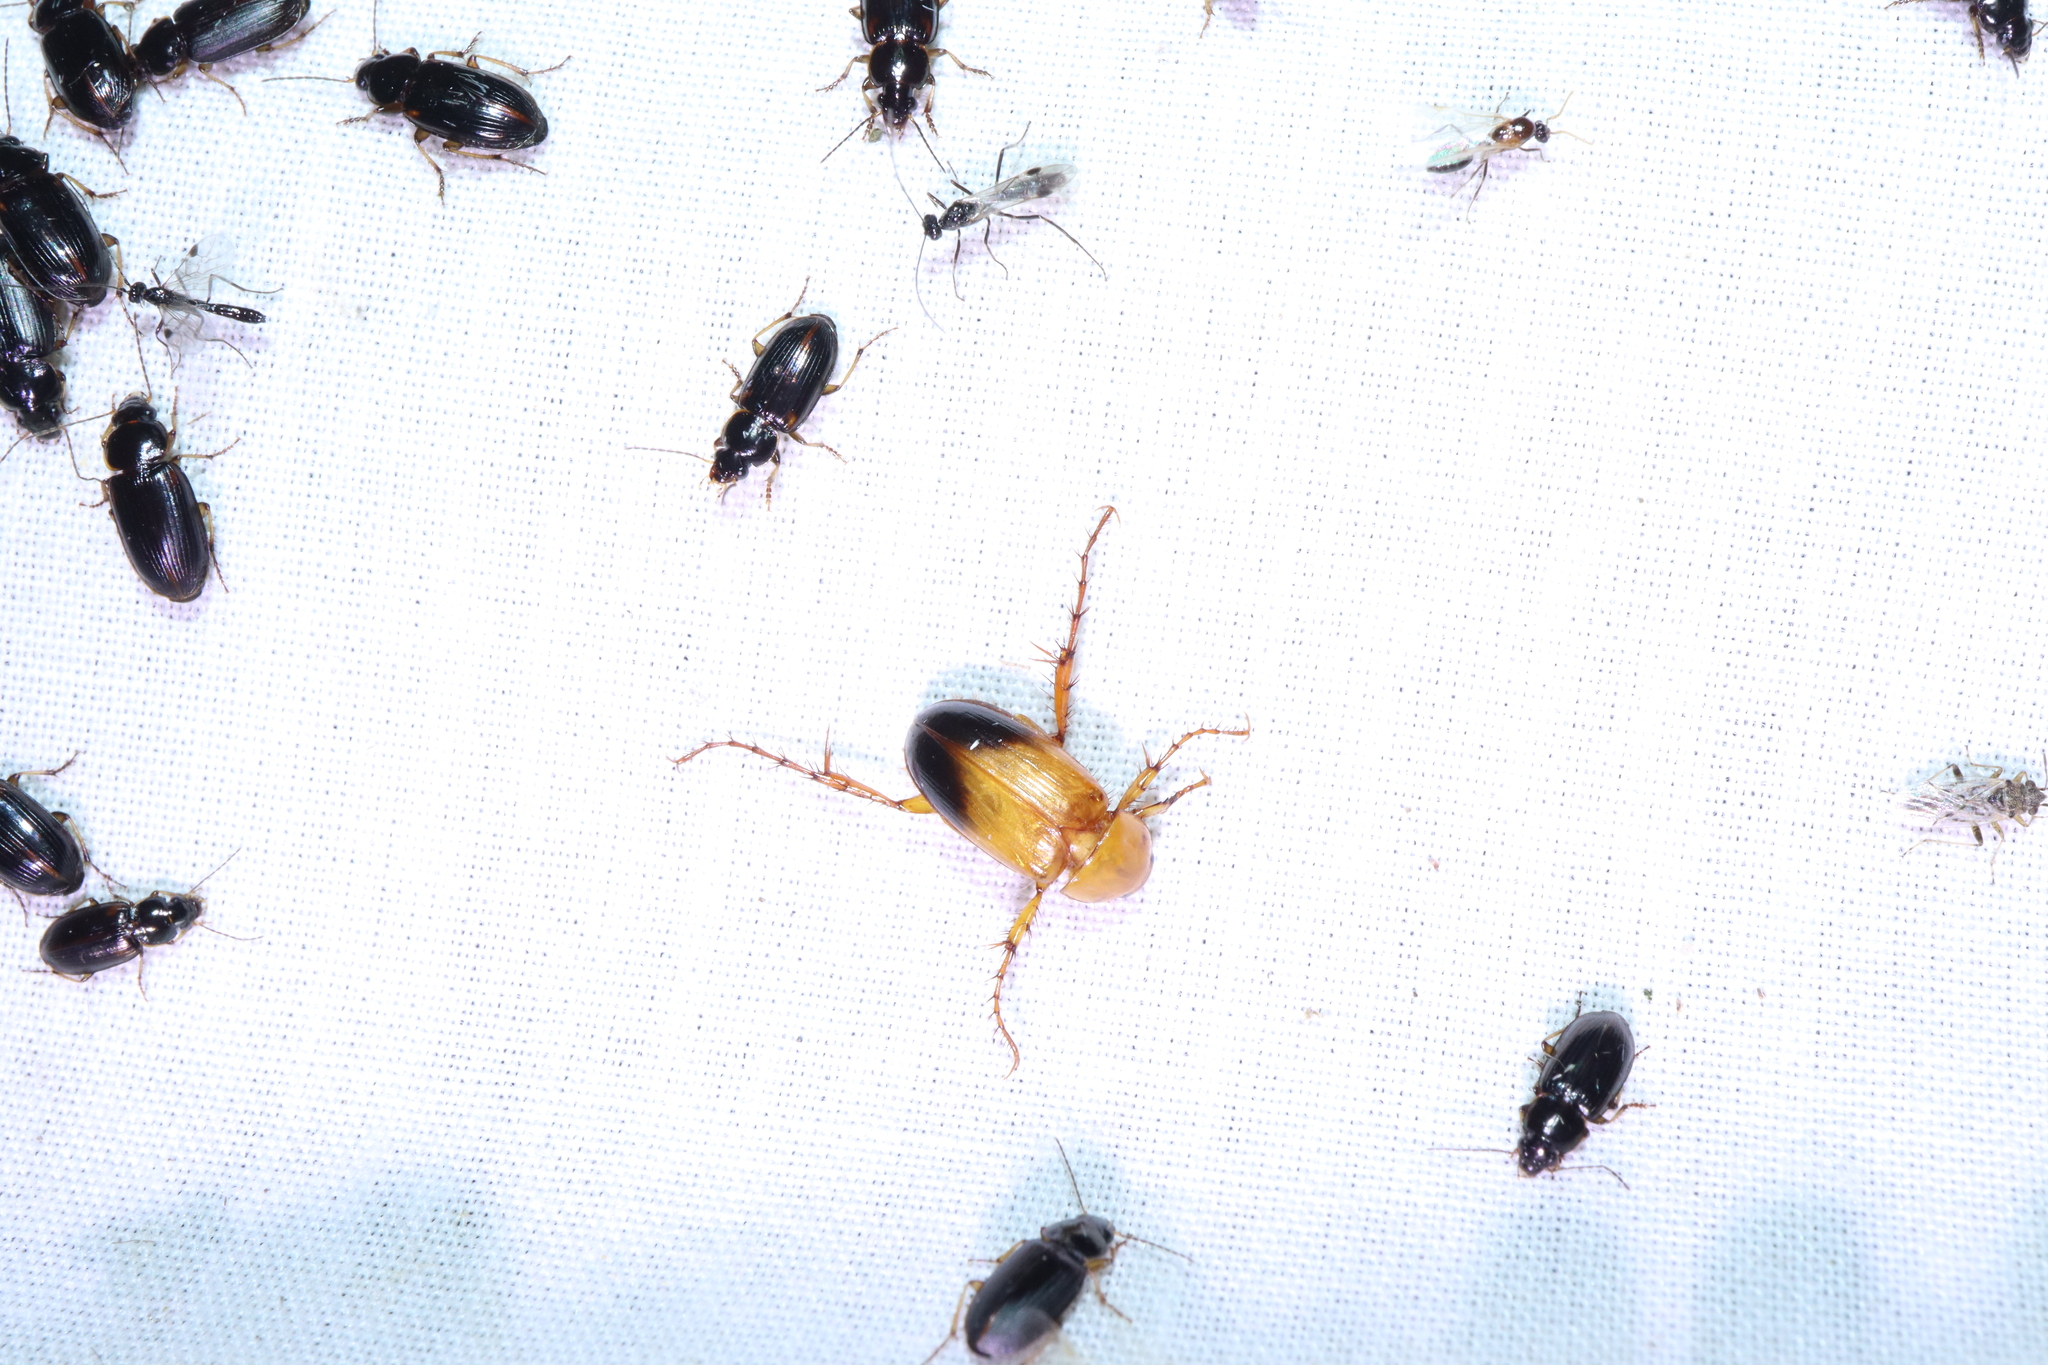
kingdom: Animalia
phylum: Arthropoda
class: Insecta
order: Coleoptera
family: Scarabaeidae
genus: Phyllotocus
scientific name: Phyllotocus macleayi
